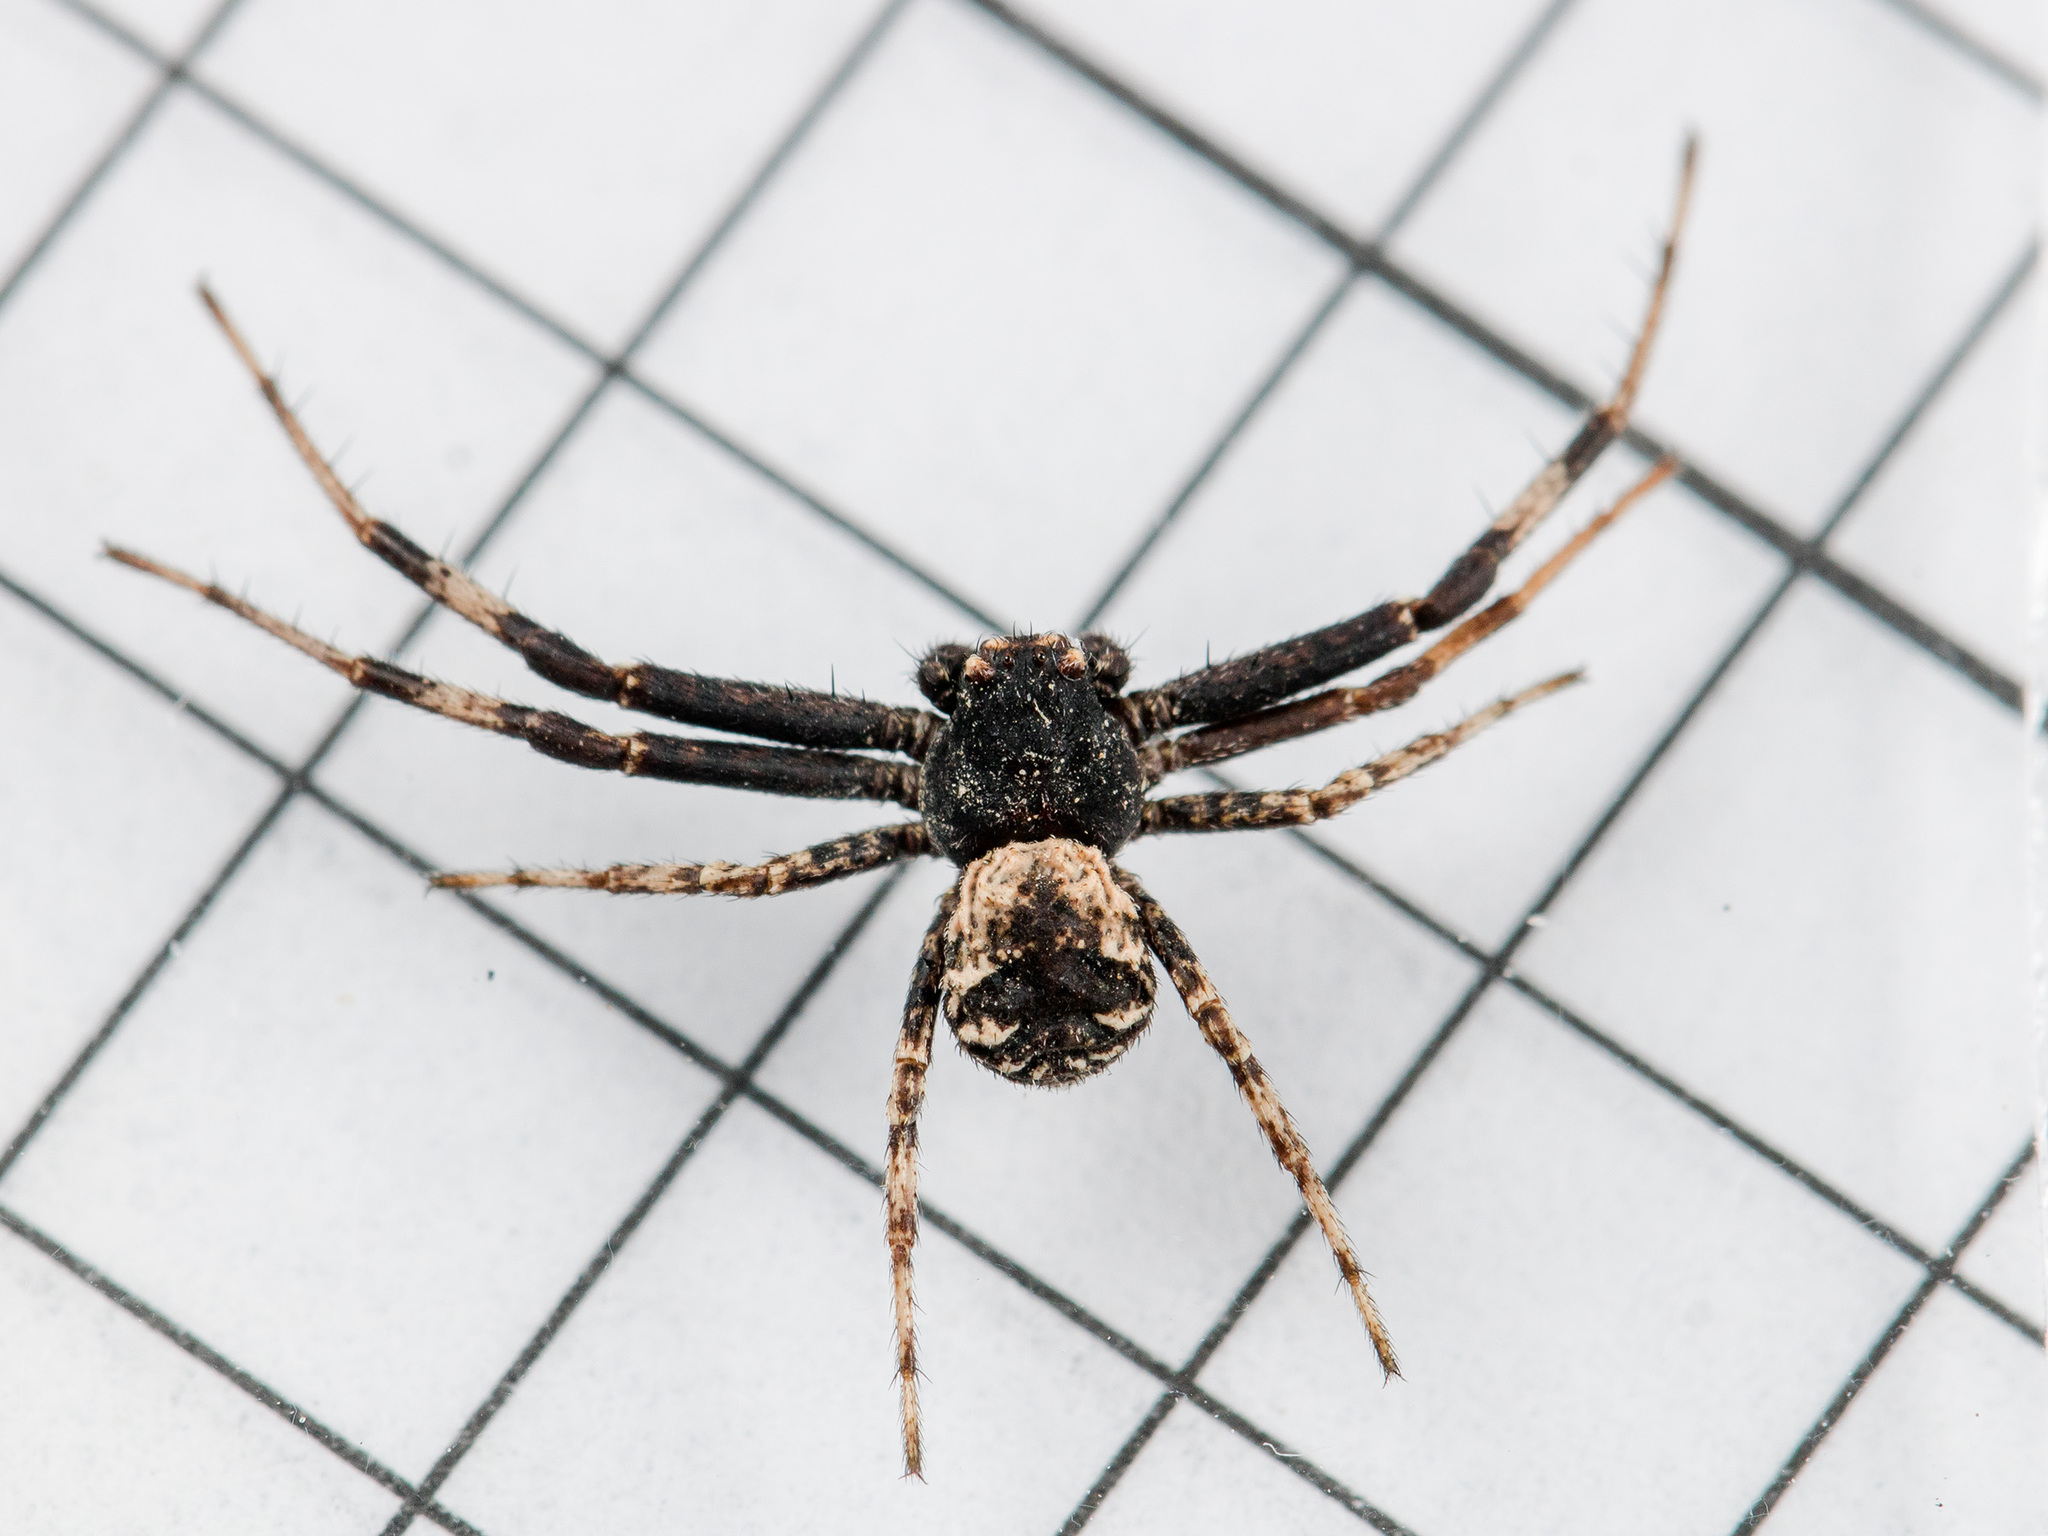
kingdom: Animalia
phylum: Arthropoda
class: Arachnida
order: Araneae
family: Thomisidae
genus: Ozyptila
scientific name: Ozyptila tuberosa
